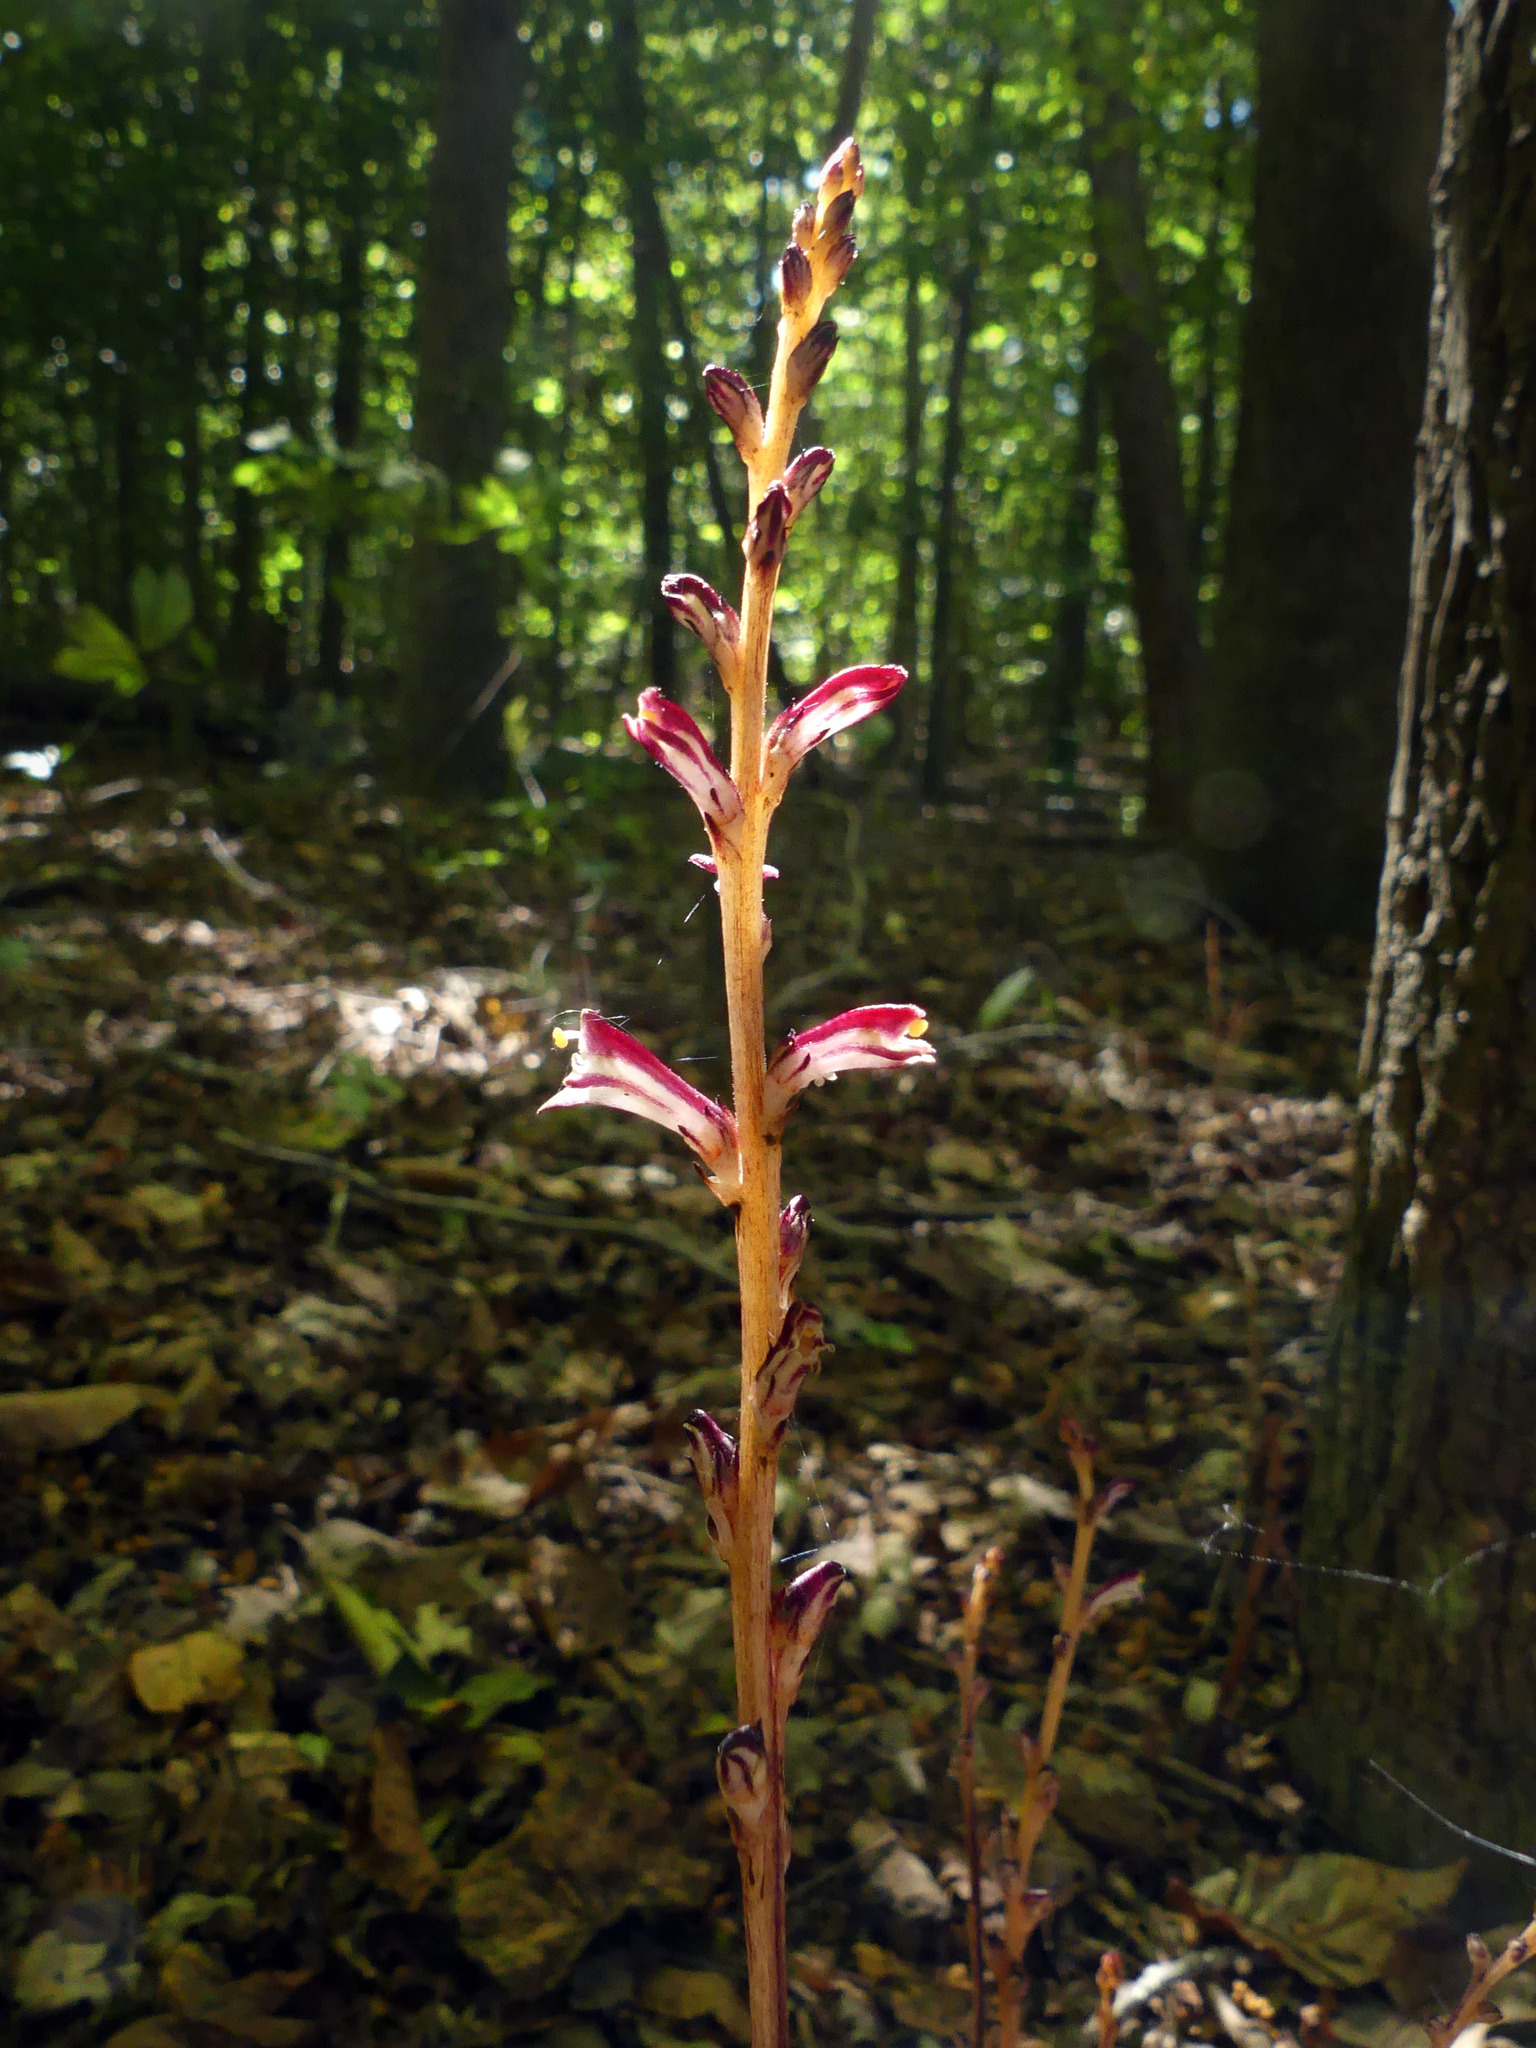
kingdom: Plantae
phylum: Tracheophyta
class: Magnoliopsida
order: Lamiales
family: Orobanchaceae
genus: Epifagus
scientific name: Epifagus virginiana
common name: Beechdrops
